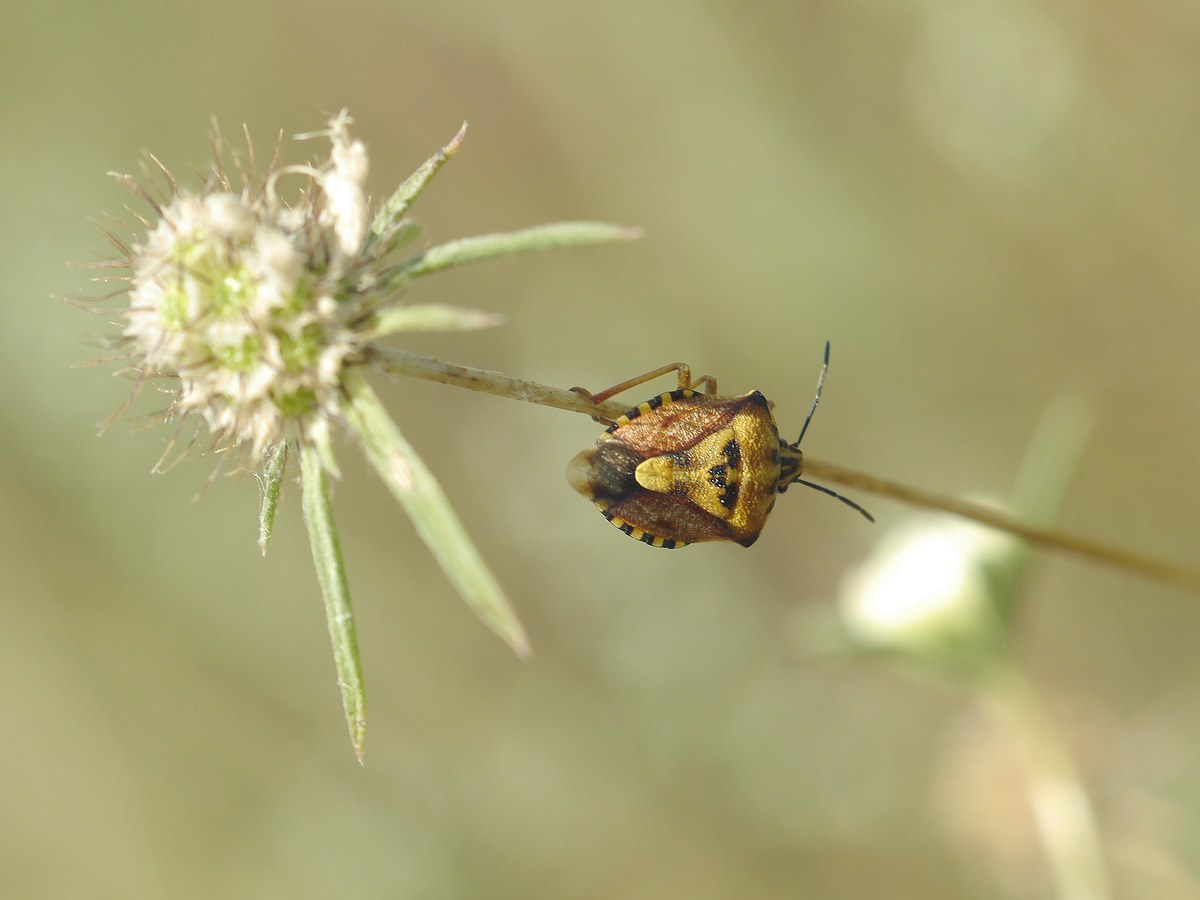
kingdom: Animalia
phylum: Arthropoda
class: Insecta
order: Hemiptera
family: Pentatomidae
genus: Carpocoris
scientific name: Carpocoris purpureipennis
